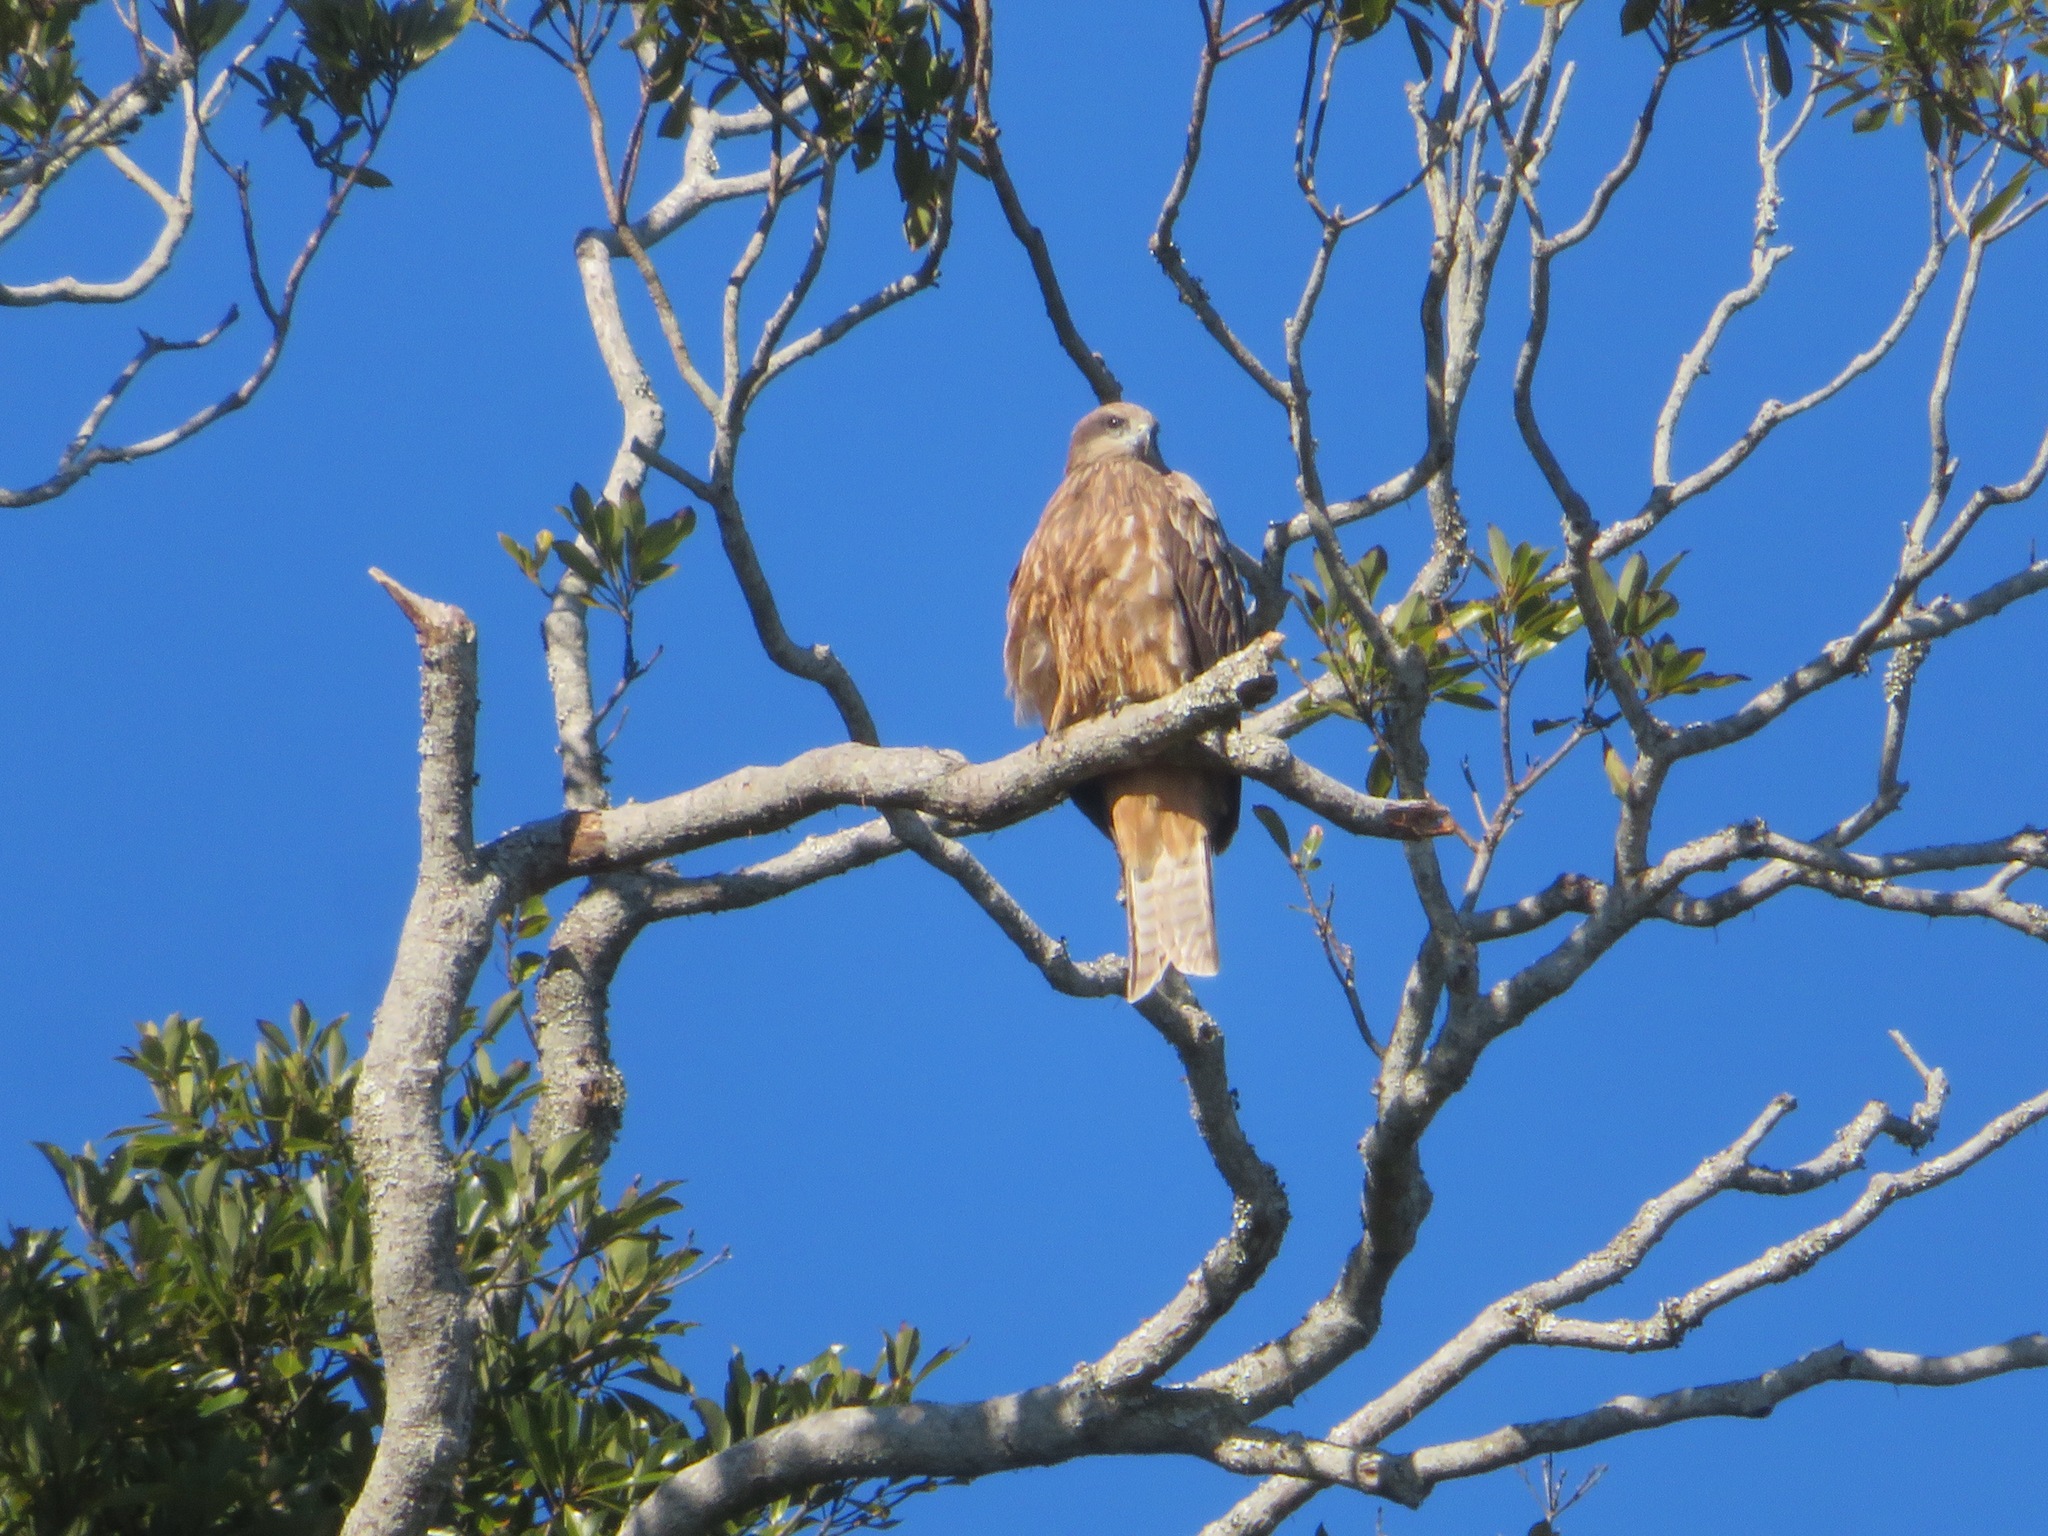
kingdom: Animalia
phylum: Chordata
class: Aves
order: Accipitriformes
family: Accipitridae
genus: Milvus
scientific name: Milvus migrans
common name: Black kite
